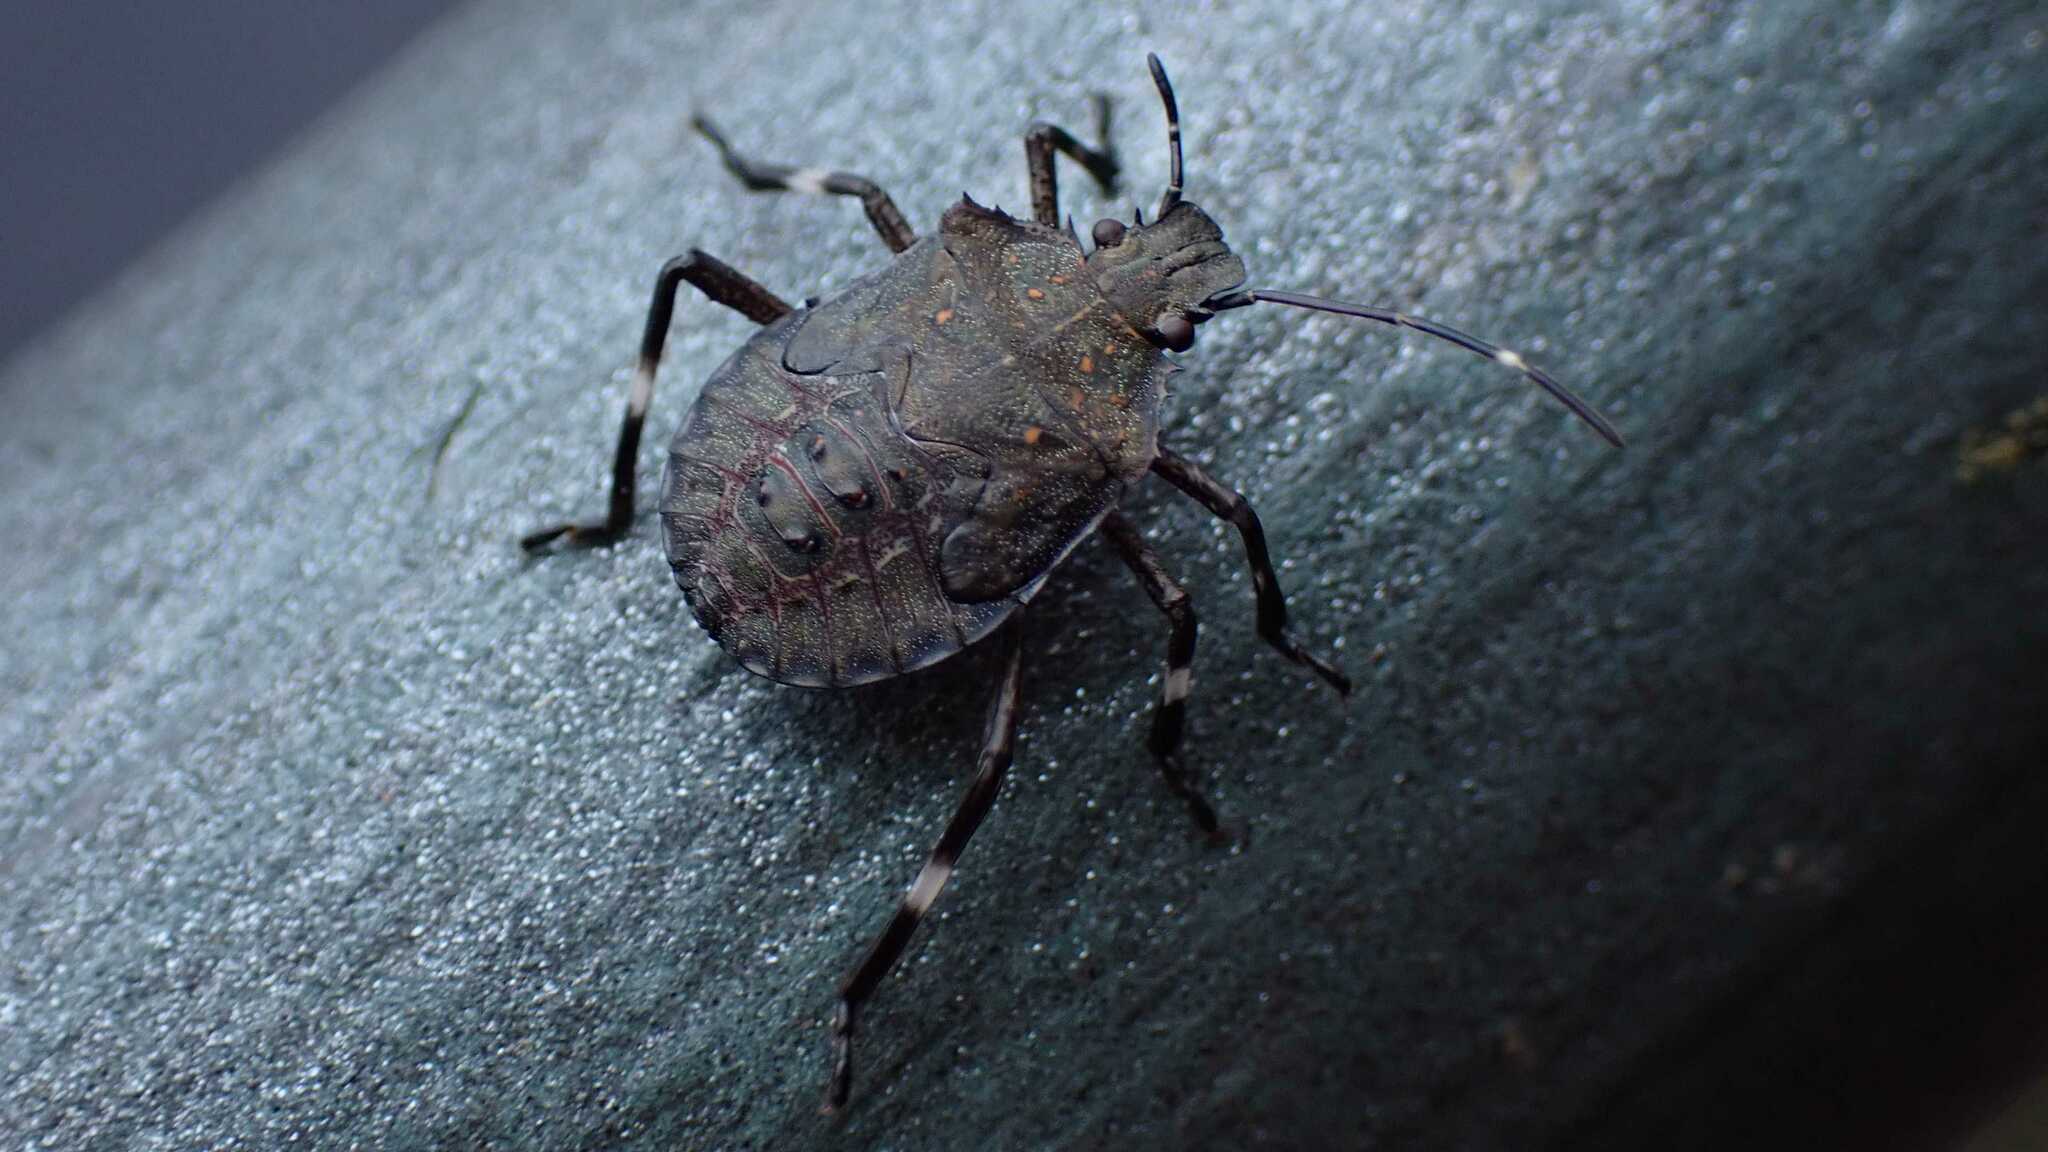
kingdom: Animalia
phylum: Arthropoda
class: Insecta
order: Hemiptera
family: Pentatomidae
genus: Halyomorpha
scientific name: Halyomorpha halys
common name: Brown marmorated stink bug
